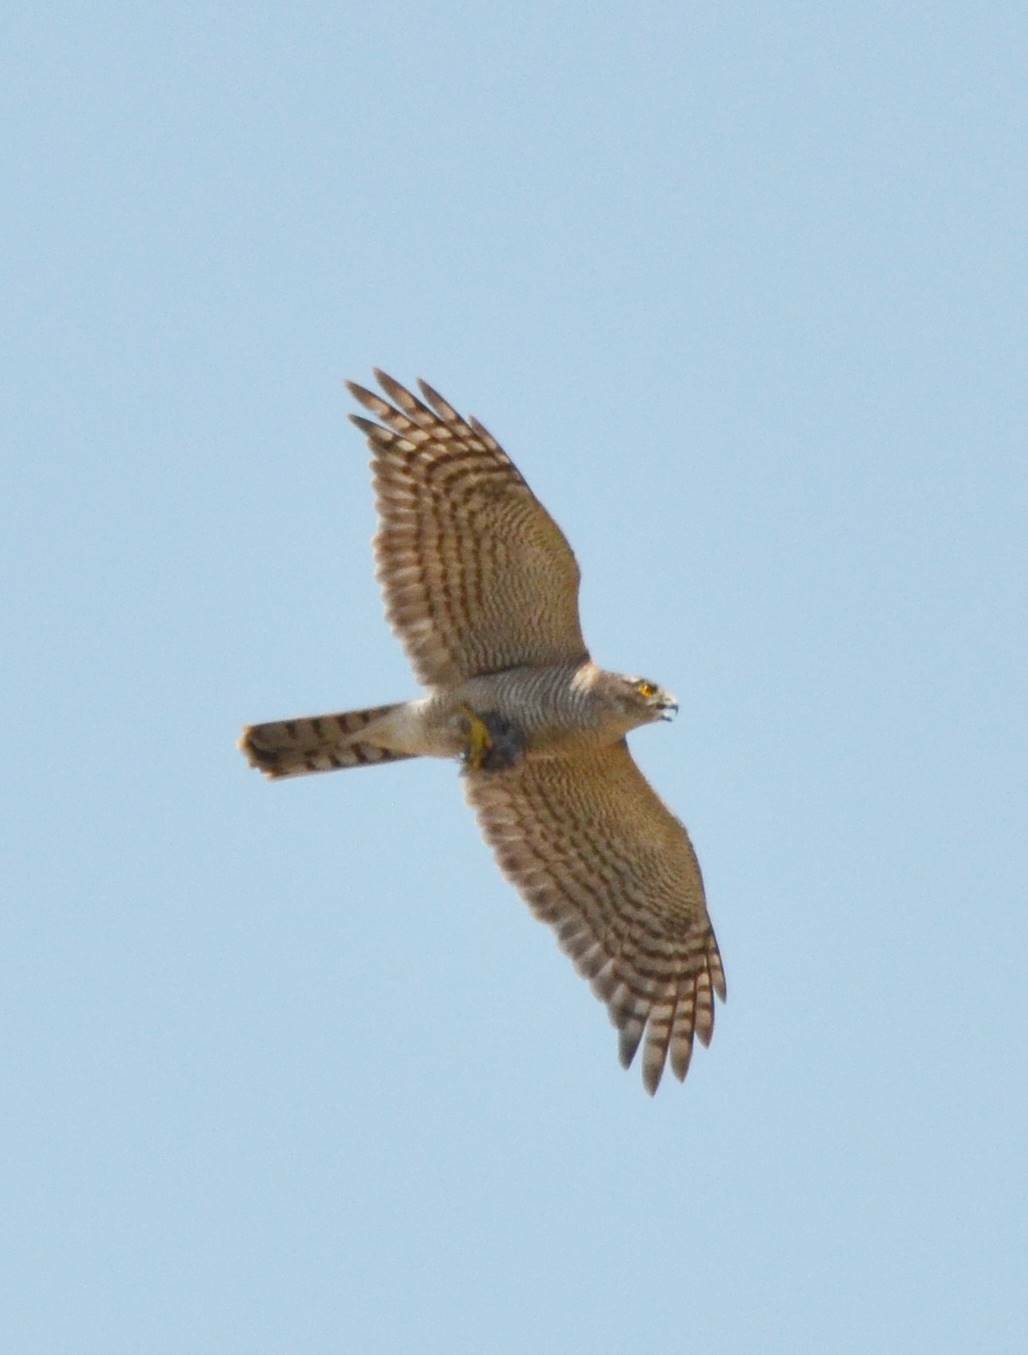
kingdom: Animalia
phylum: Chordata
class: Aves
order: Accipitriformes
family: Accipitridae
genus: Accipiter
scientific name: Accipiter nisus
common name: Eurasian sparrowhawk
